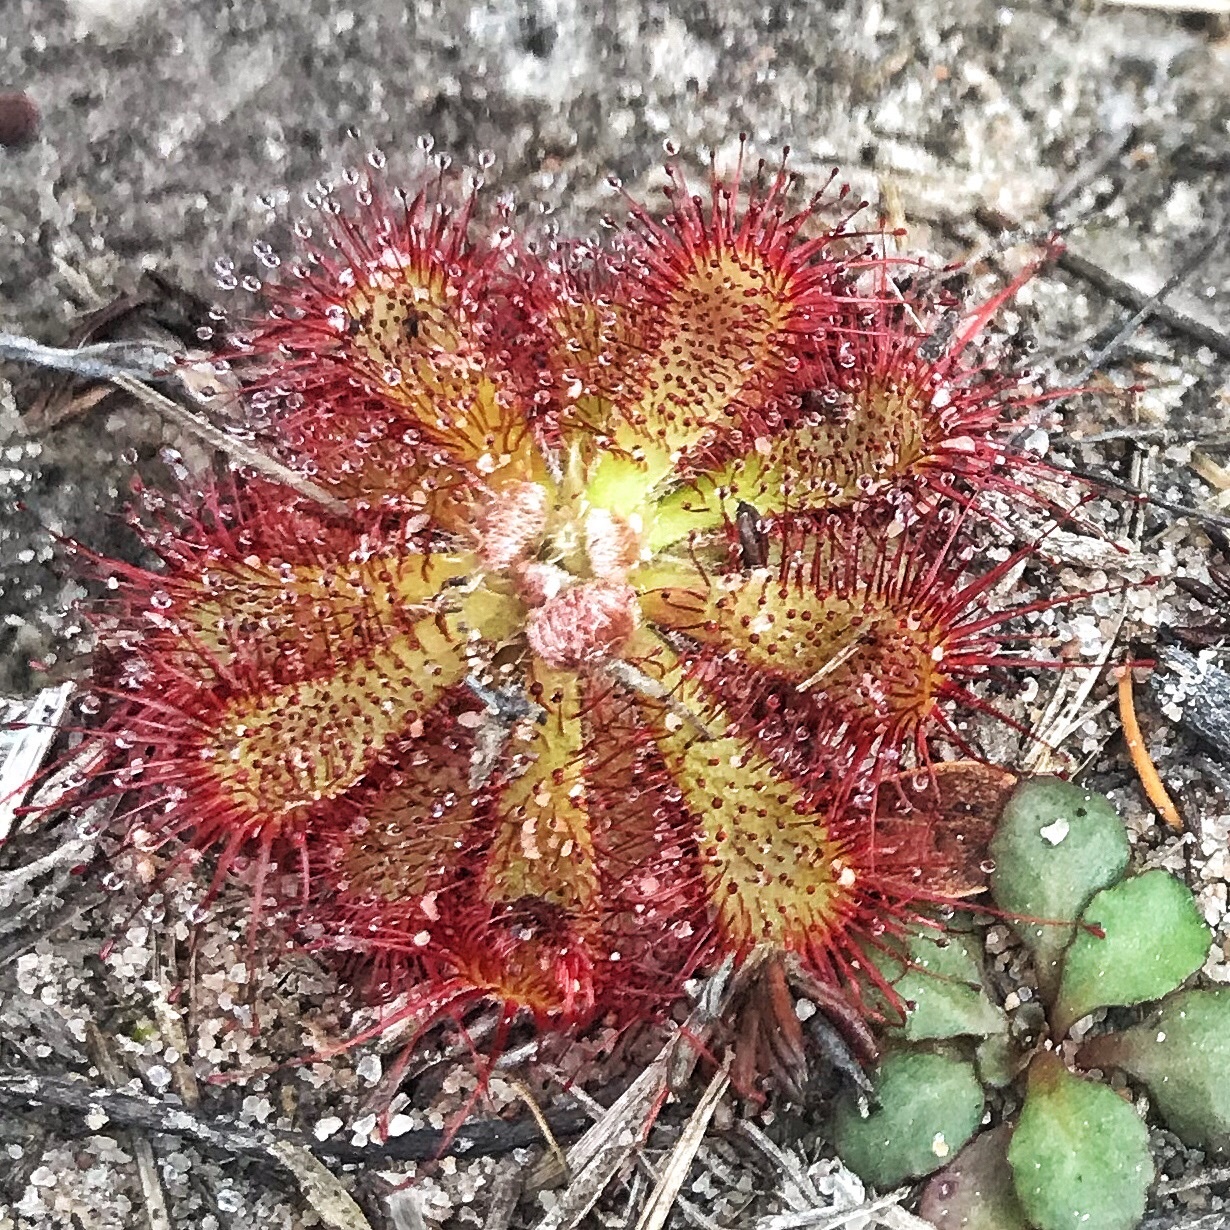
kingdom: Plantae
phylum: Tracheophyta
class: Magnoliopsida
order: Caryophyllales
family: Droseraceae
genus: Drosera
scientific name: Drosera aliciae
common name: Alice sundew
